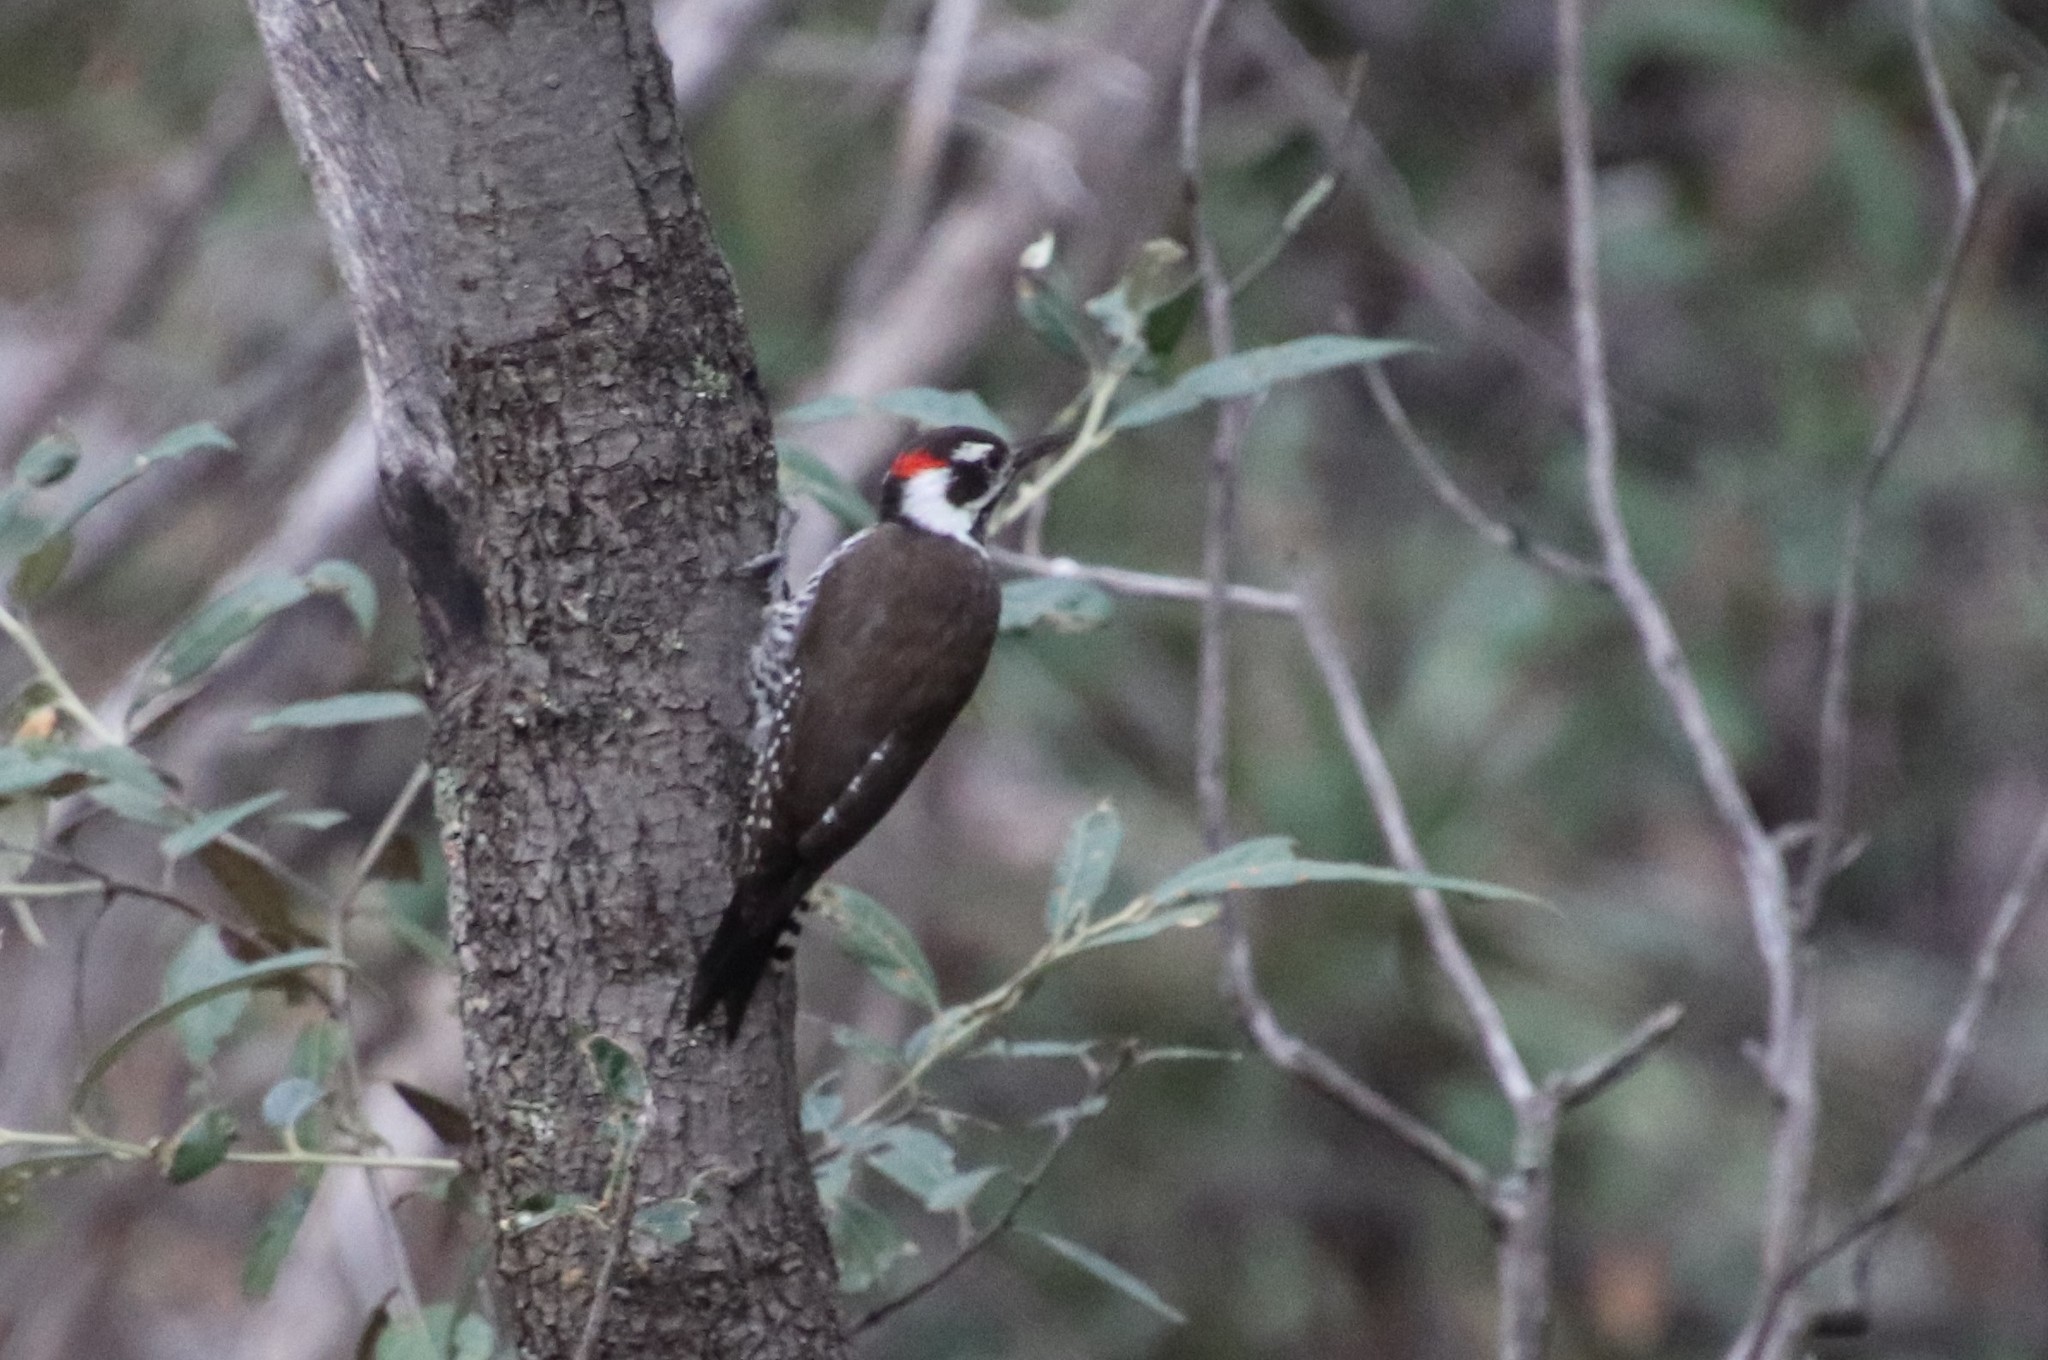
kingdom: Animalia
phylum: Chordata
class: Aves
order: Piciformes
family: Picidae
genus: Leuconotopicus
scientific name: Leuconotopicus arizonae
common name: Arizona woodpecker
